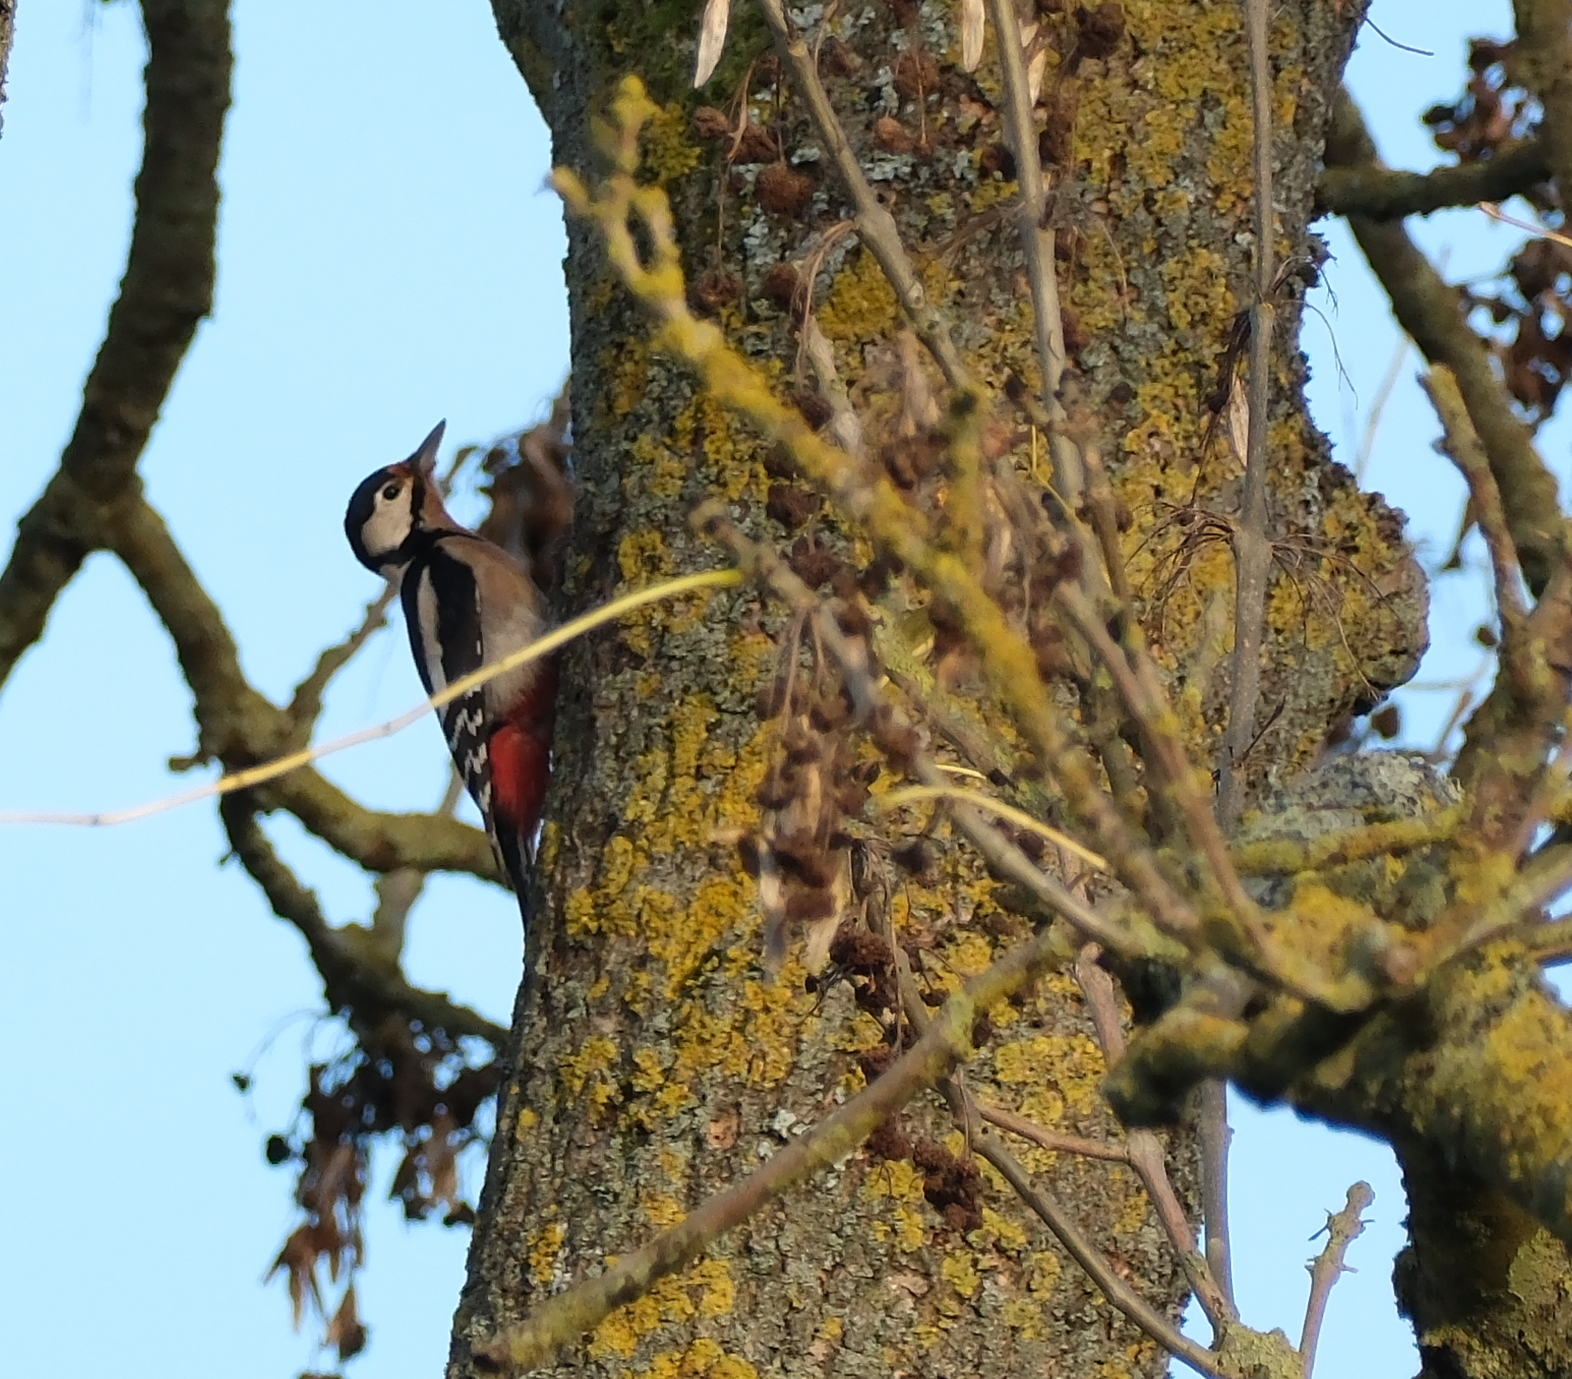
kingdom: Animalia
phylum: Chordata
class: Aves
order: Piciformes
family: Picidae
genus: Dendrocopos
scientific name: Dendrocopos major
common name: Great spotted woodpecker
